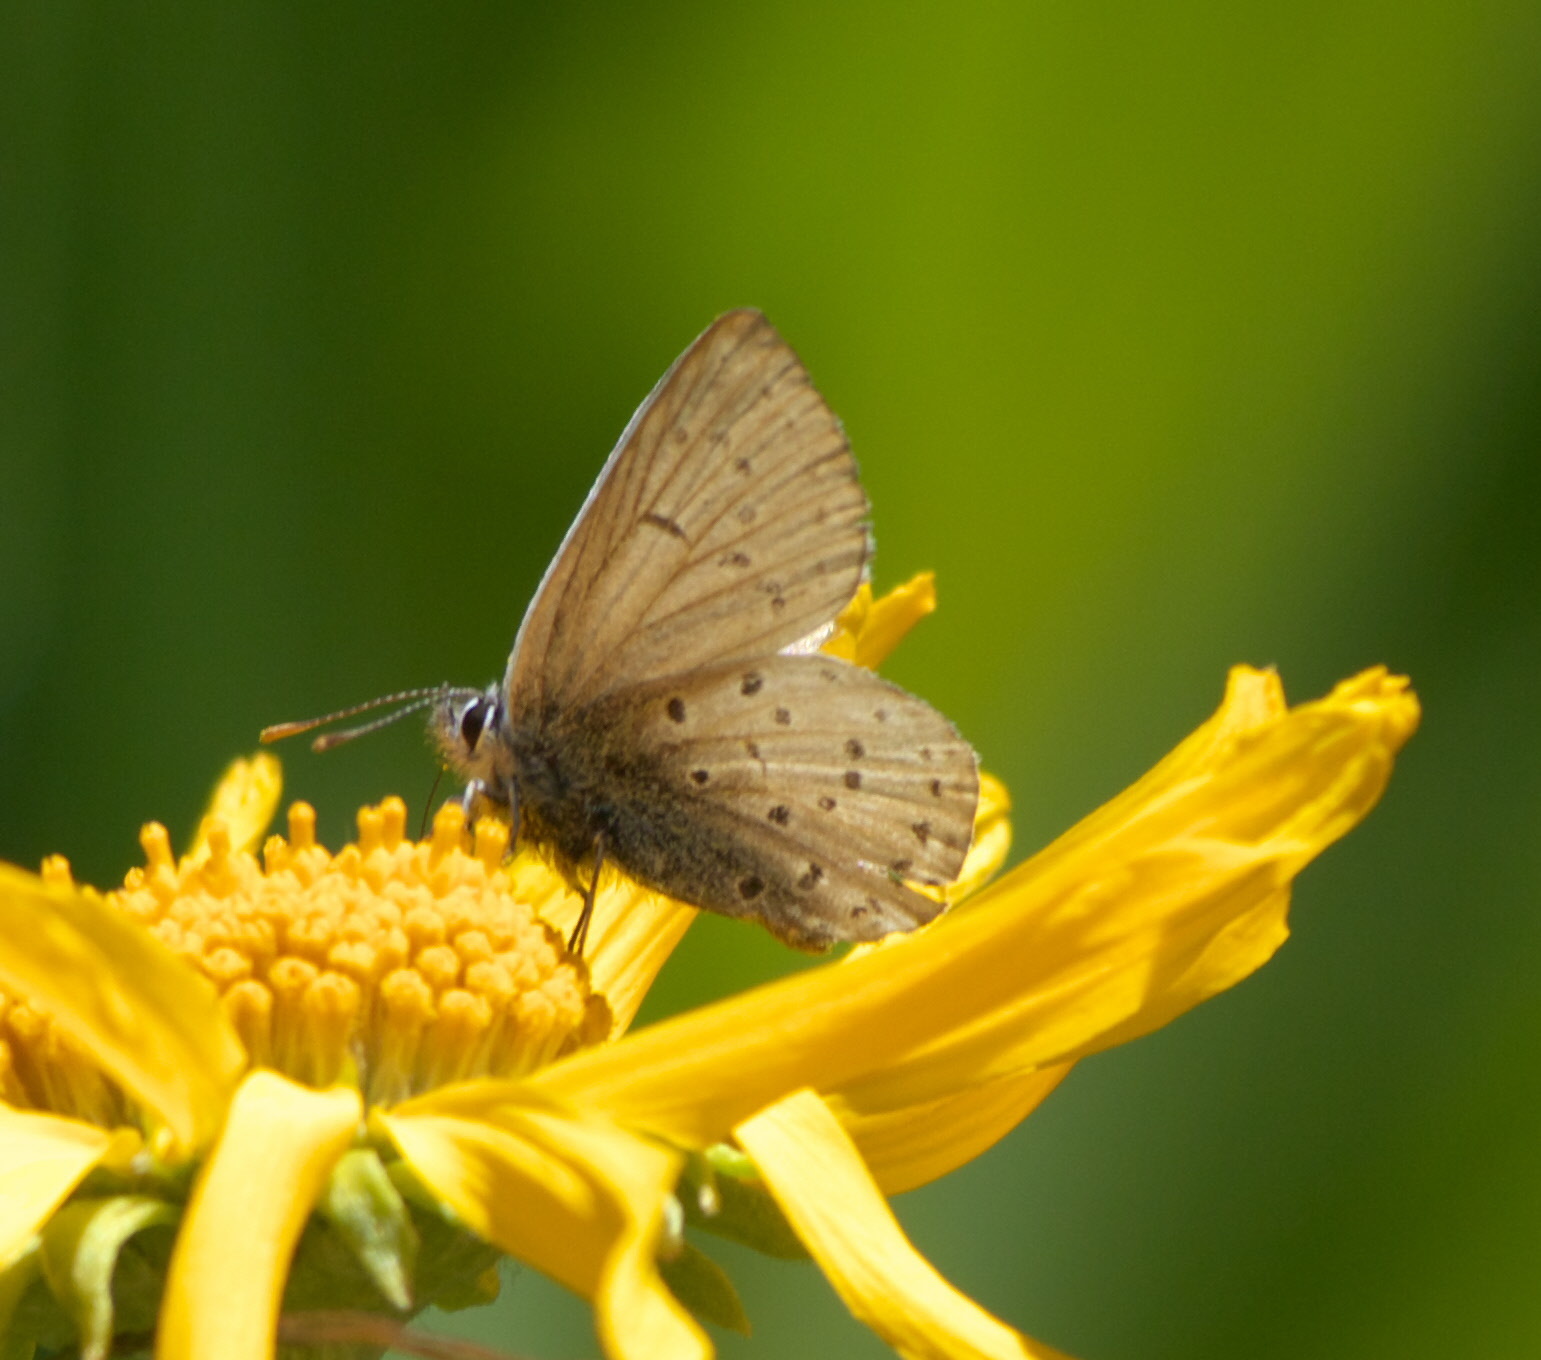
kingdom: Animalia
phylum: Arthropoda
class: Insecta
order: Lepidoptera
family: Lycaenidae
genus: Icaricia
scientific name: Icaricia saepiolus
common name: Greenish blue
